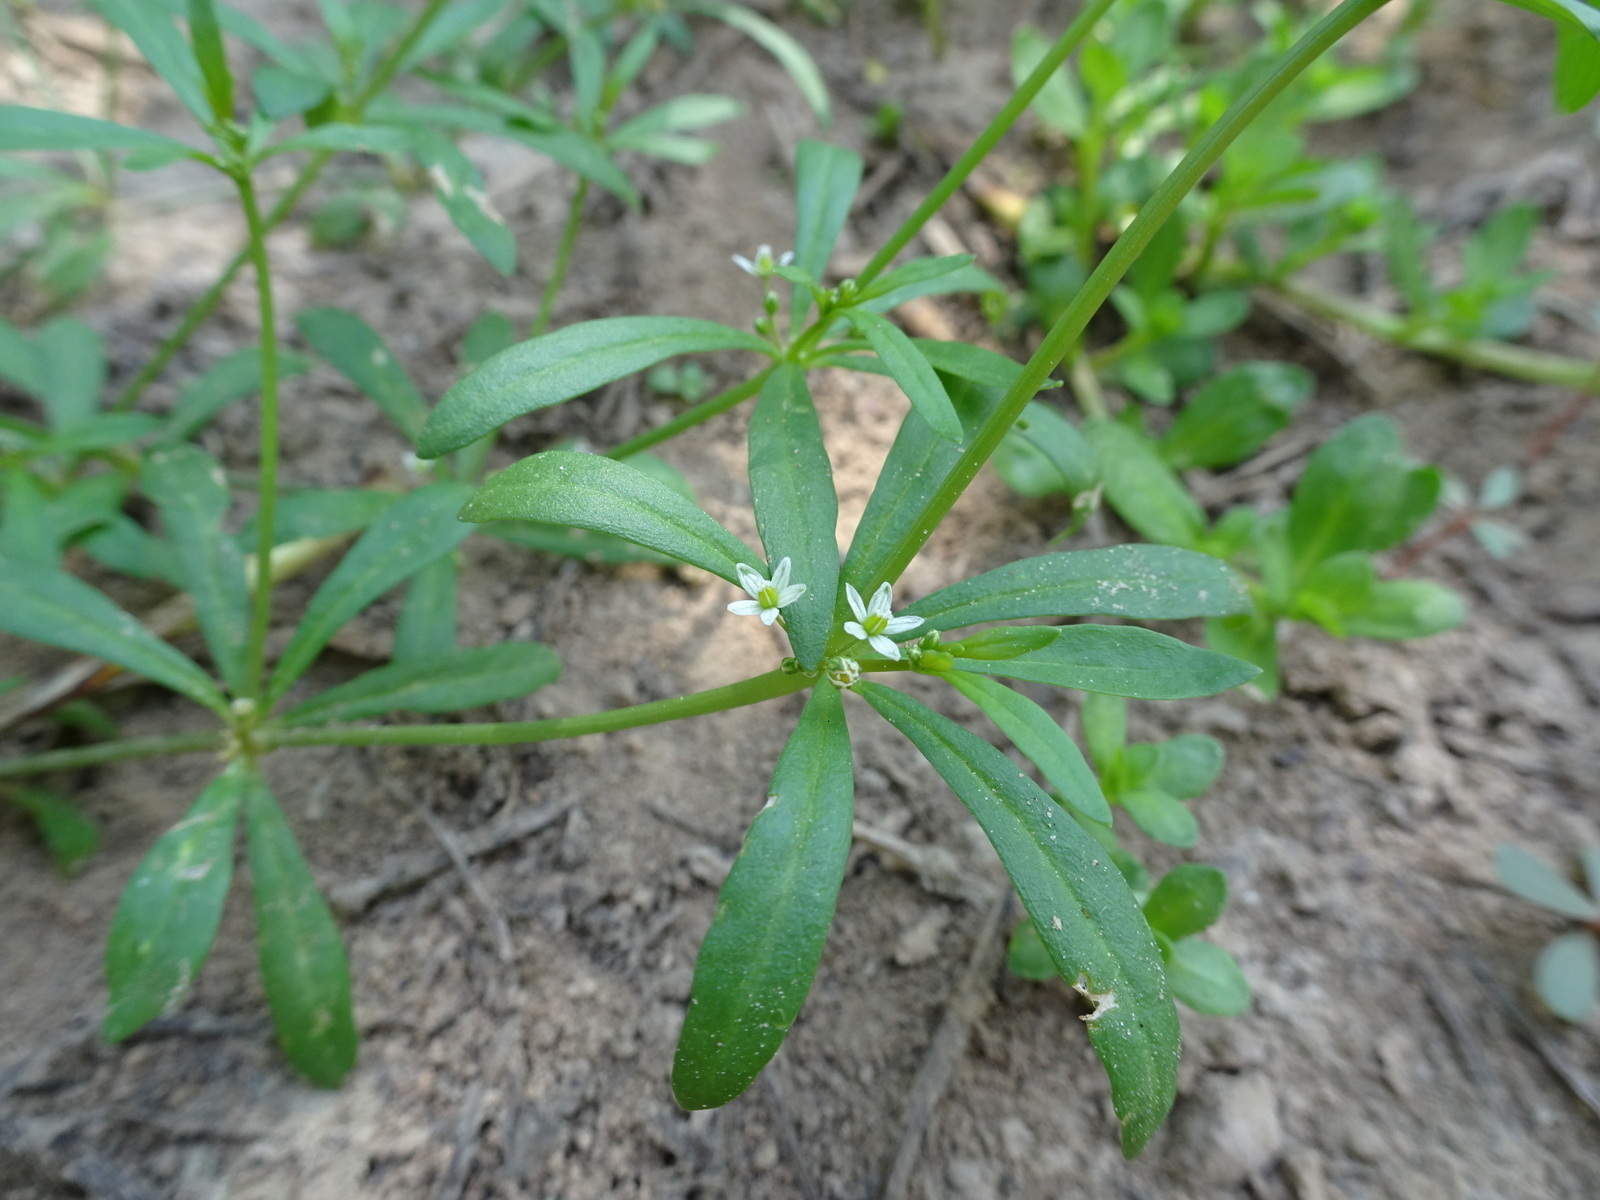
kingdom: Plantae
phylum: Tracheophyta
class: Magnoliopsida
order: Caryophyllales
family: Molluginaceae
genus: Mollugo
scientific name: Mollugo verticillata
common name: Green carpetweed
